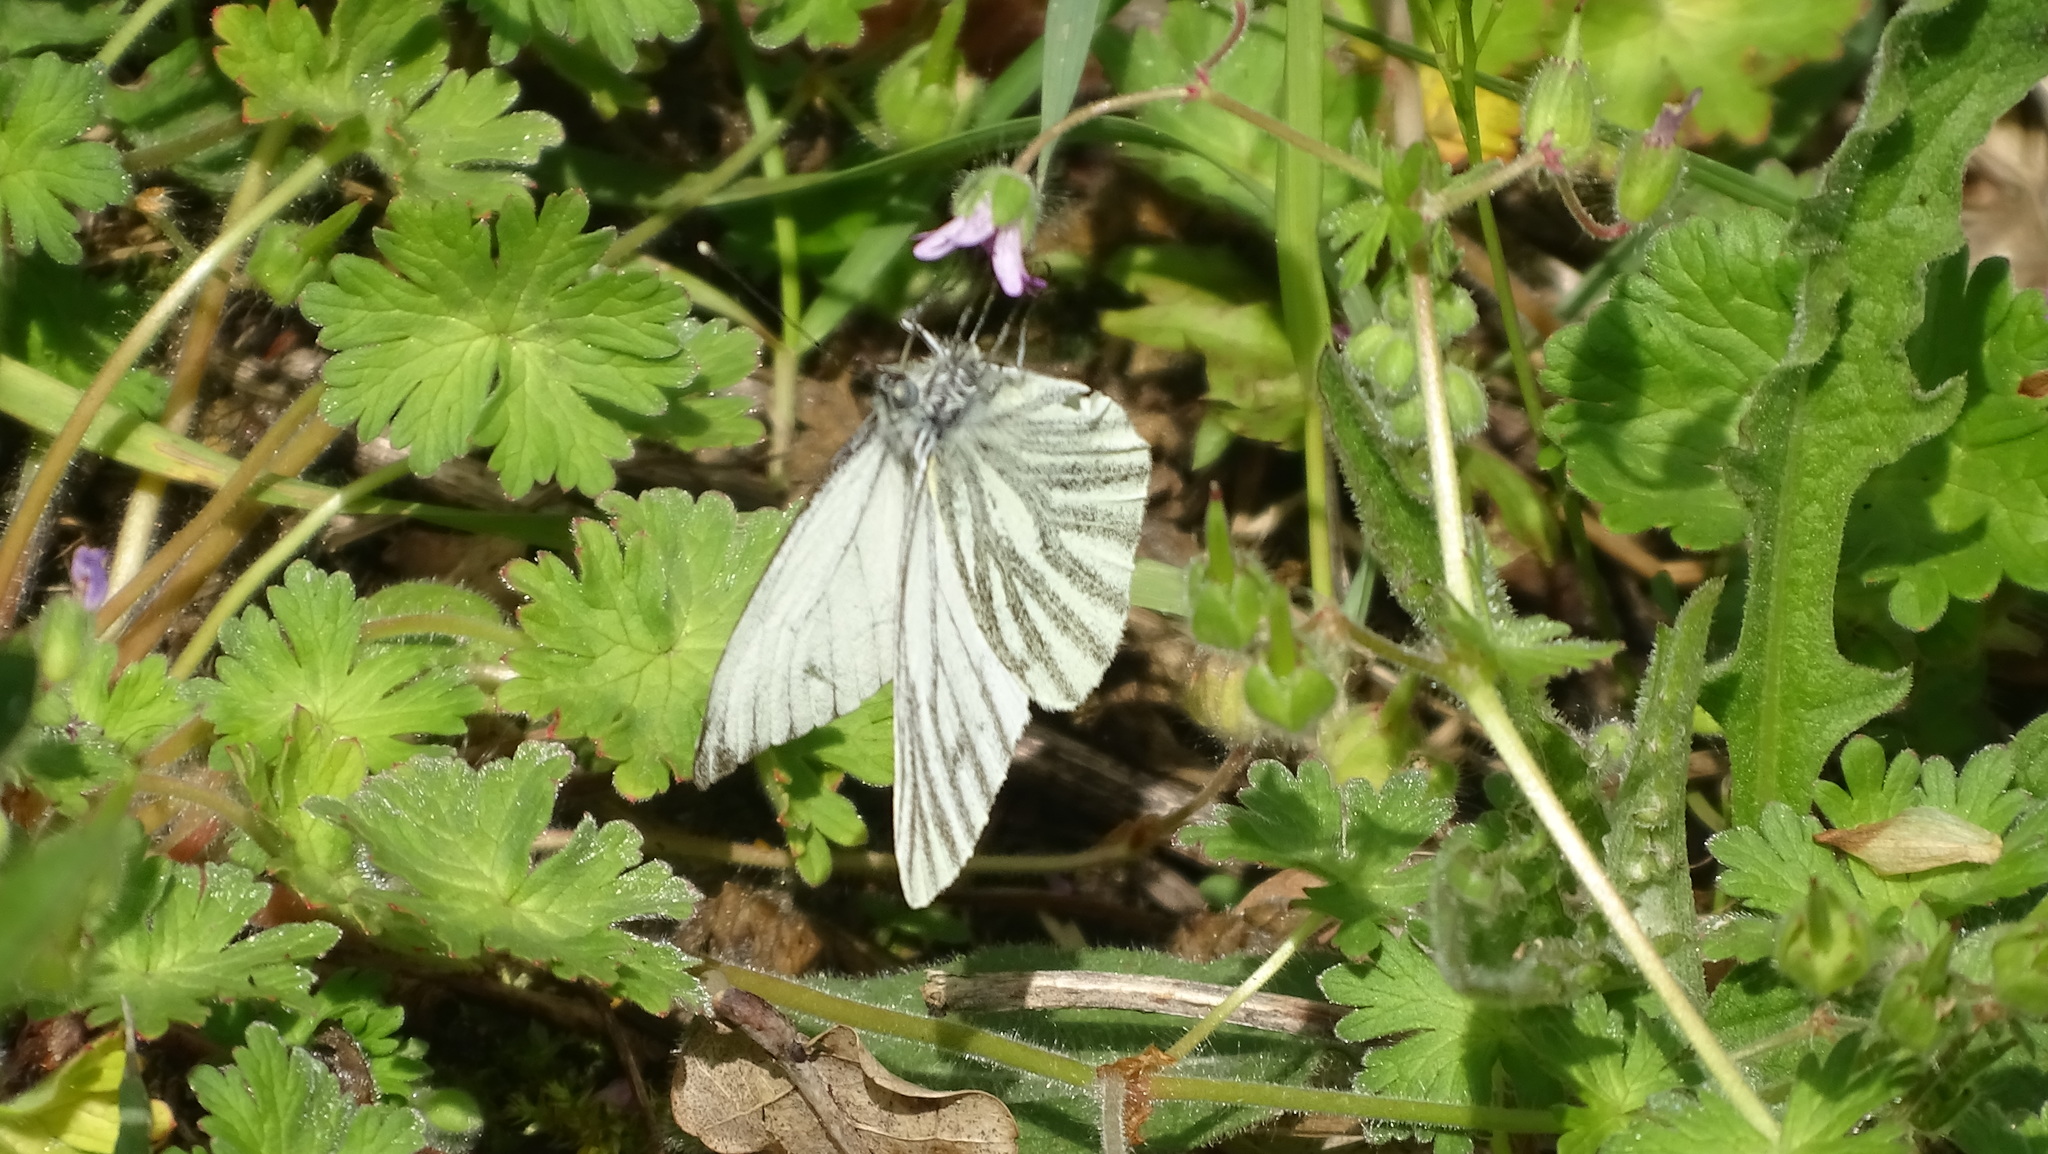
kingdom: Animalia
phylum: Arthropoda
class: Insecta
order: Lepidoptera
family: Pieridae
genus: Pieris
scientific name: Pieris napi
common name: Green-veined white
